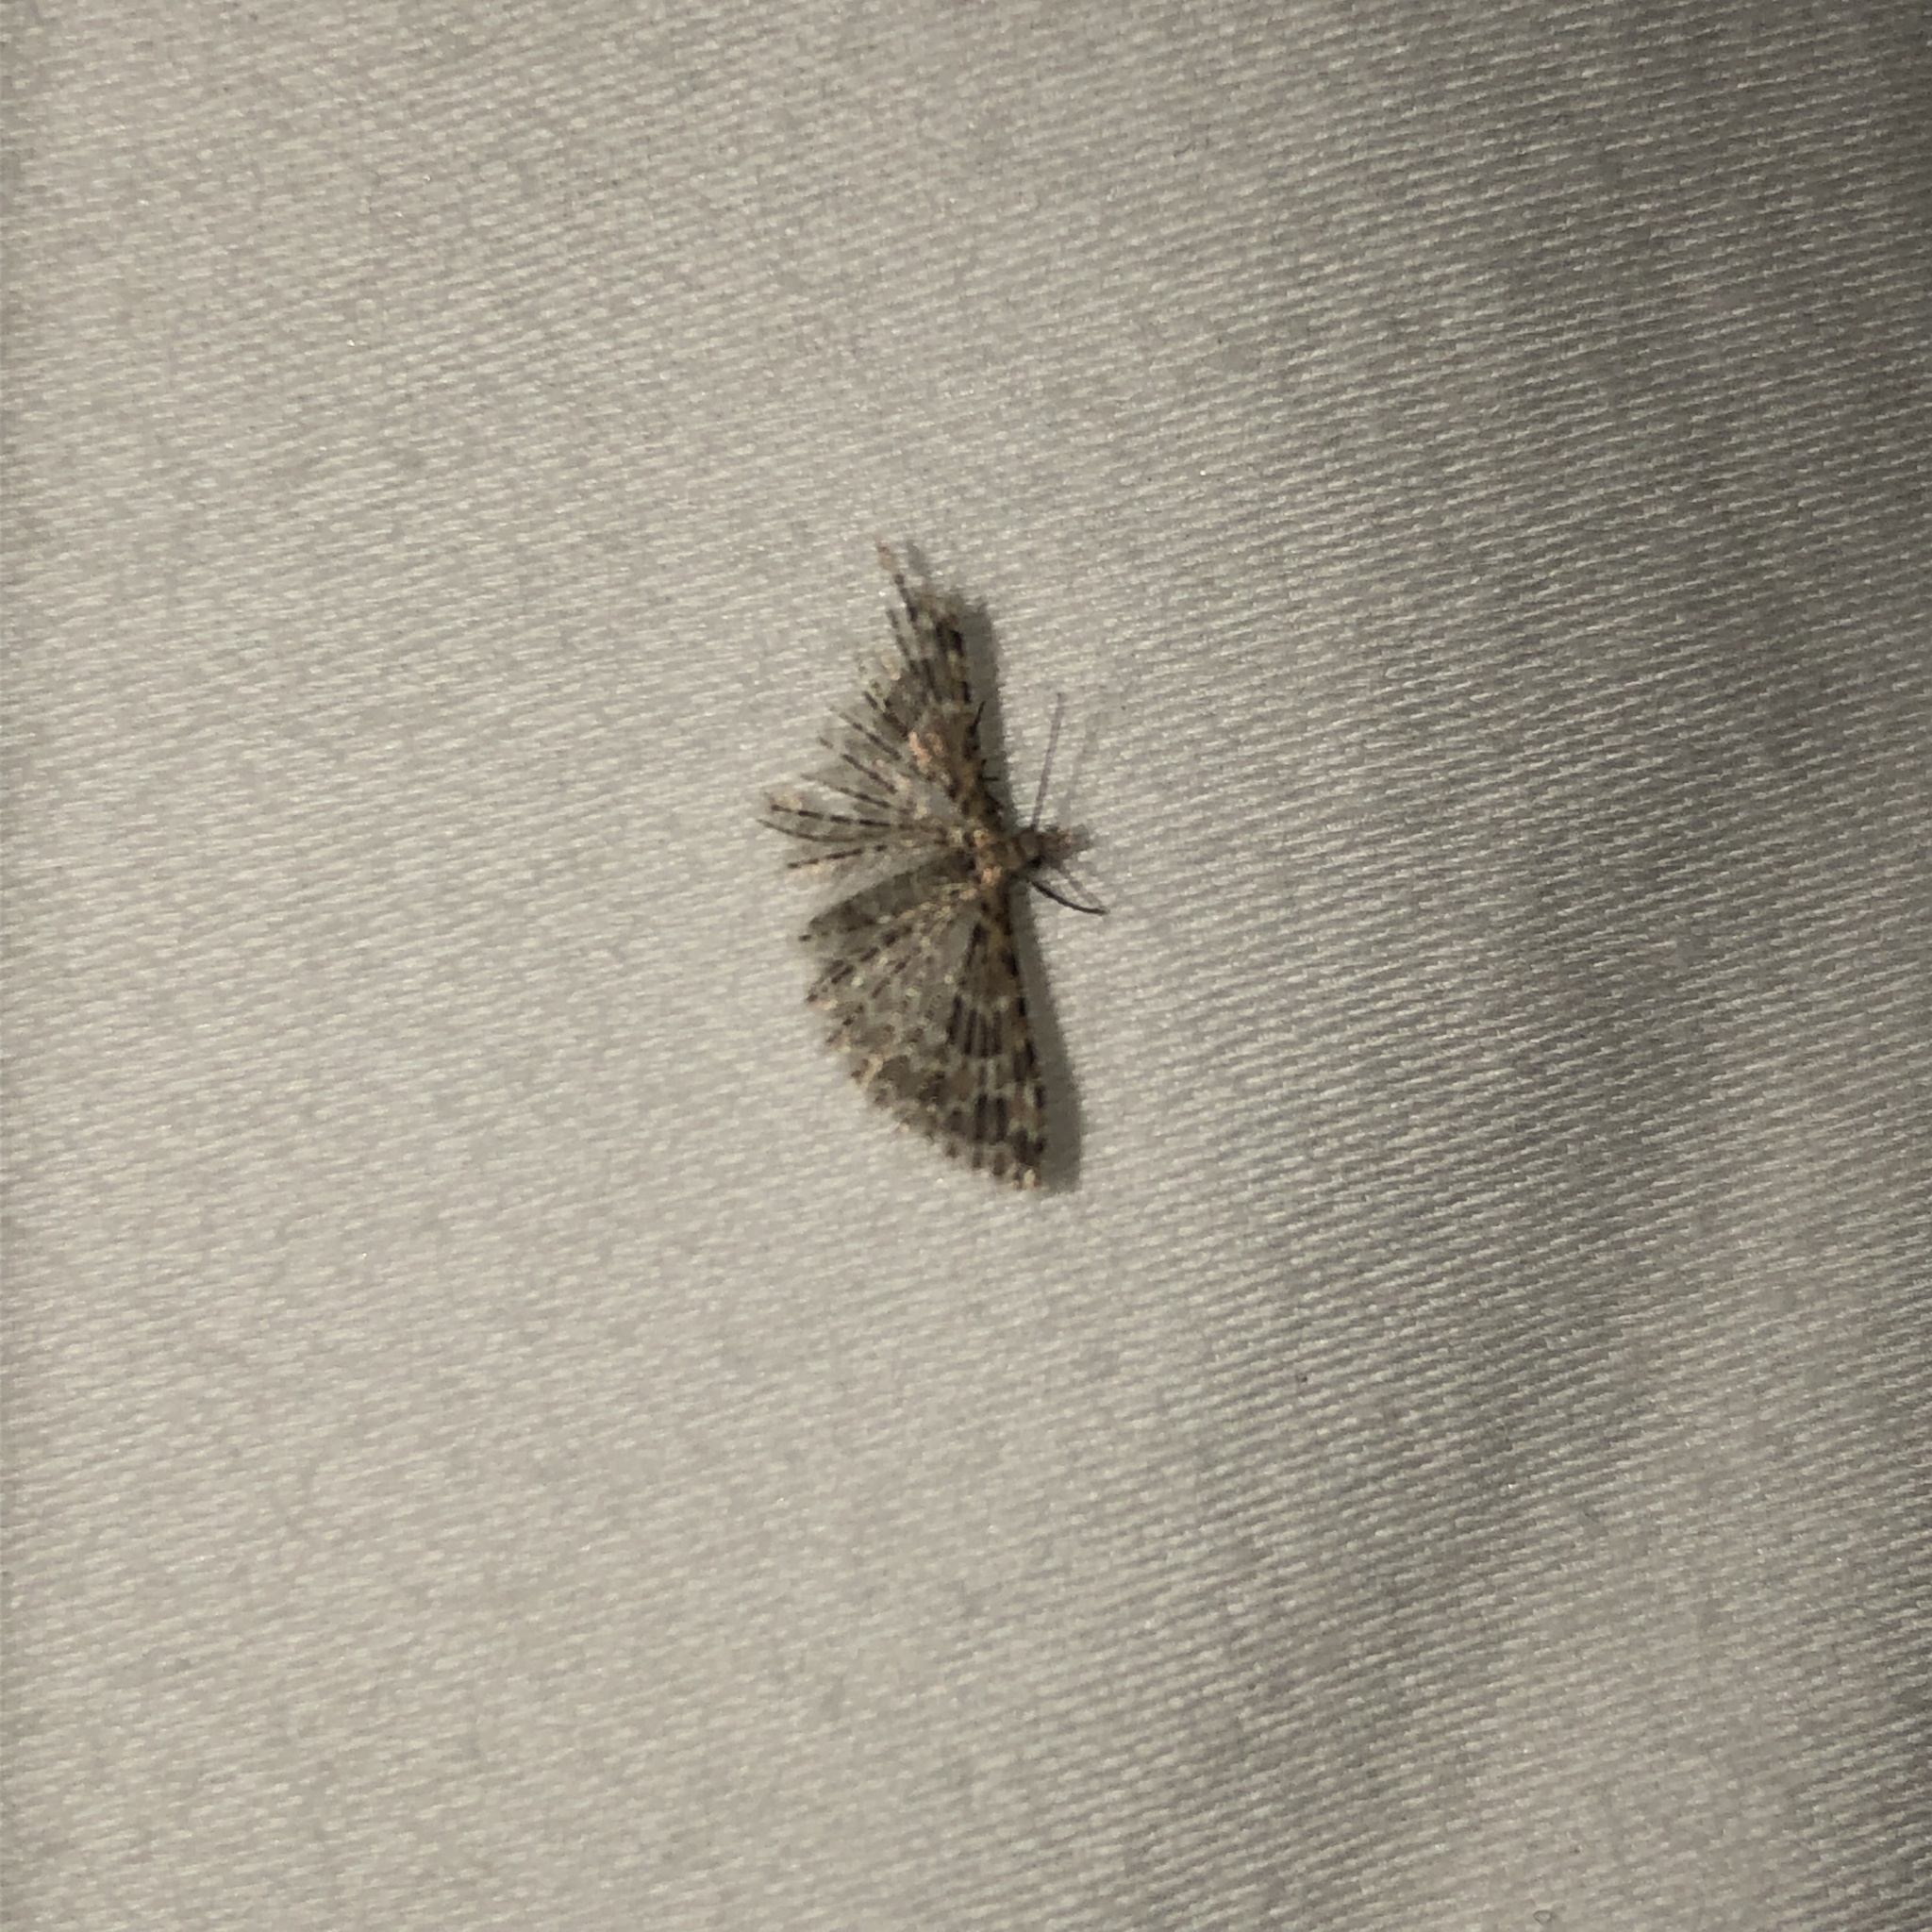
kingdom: Animalia
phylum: Arthropoda
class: Insecta
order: Lepidoptera
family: Alucitidae
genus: Alucita
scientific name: Alucita montana
